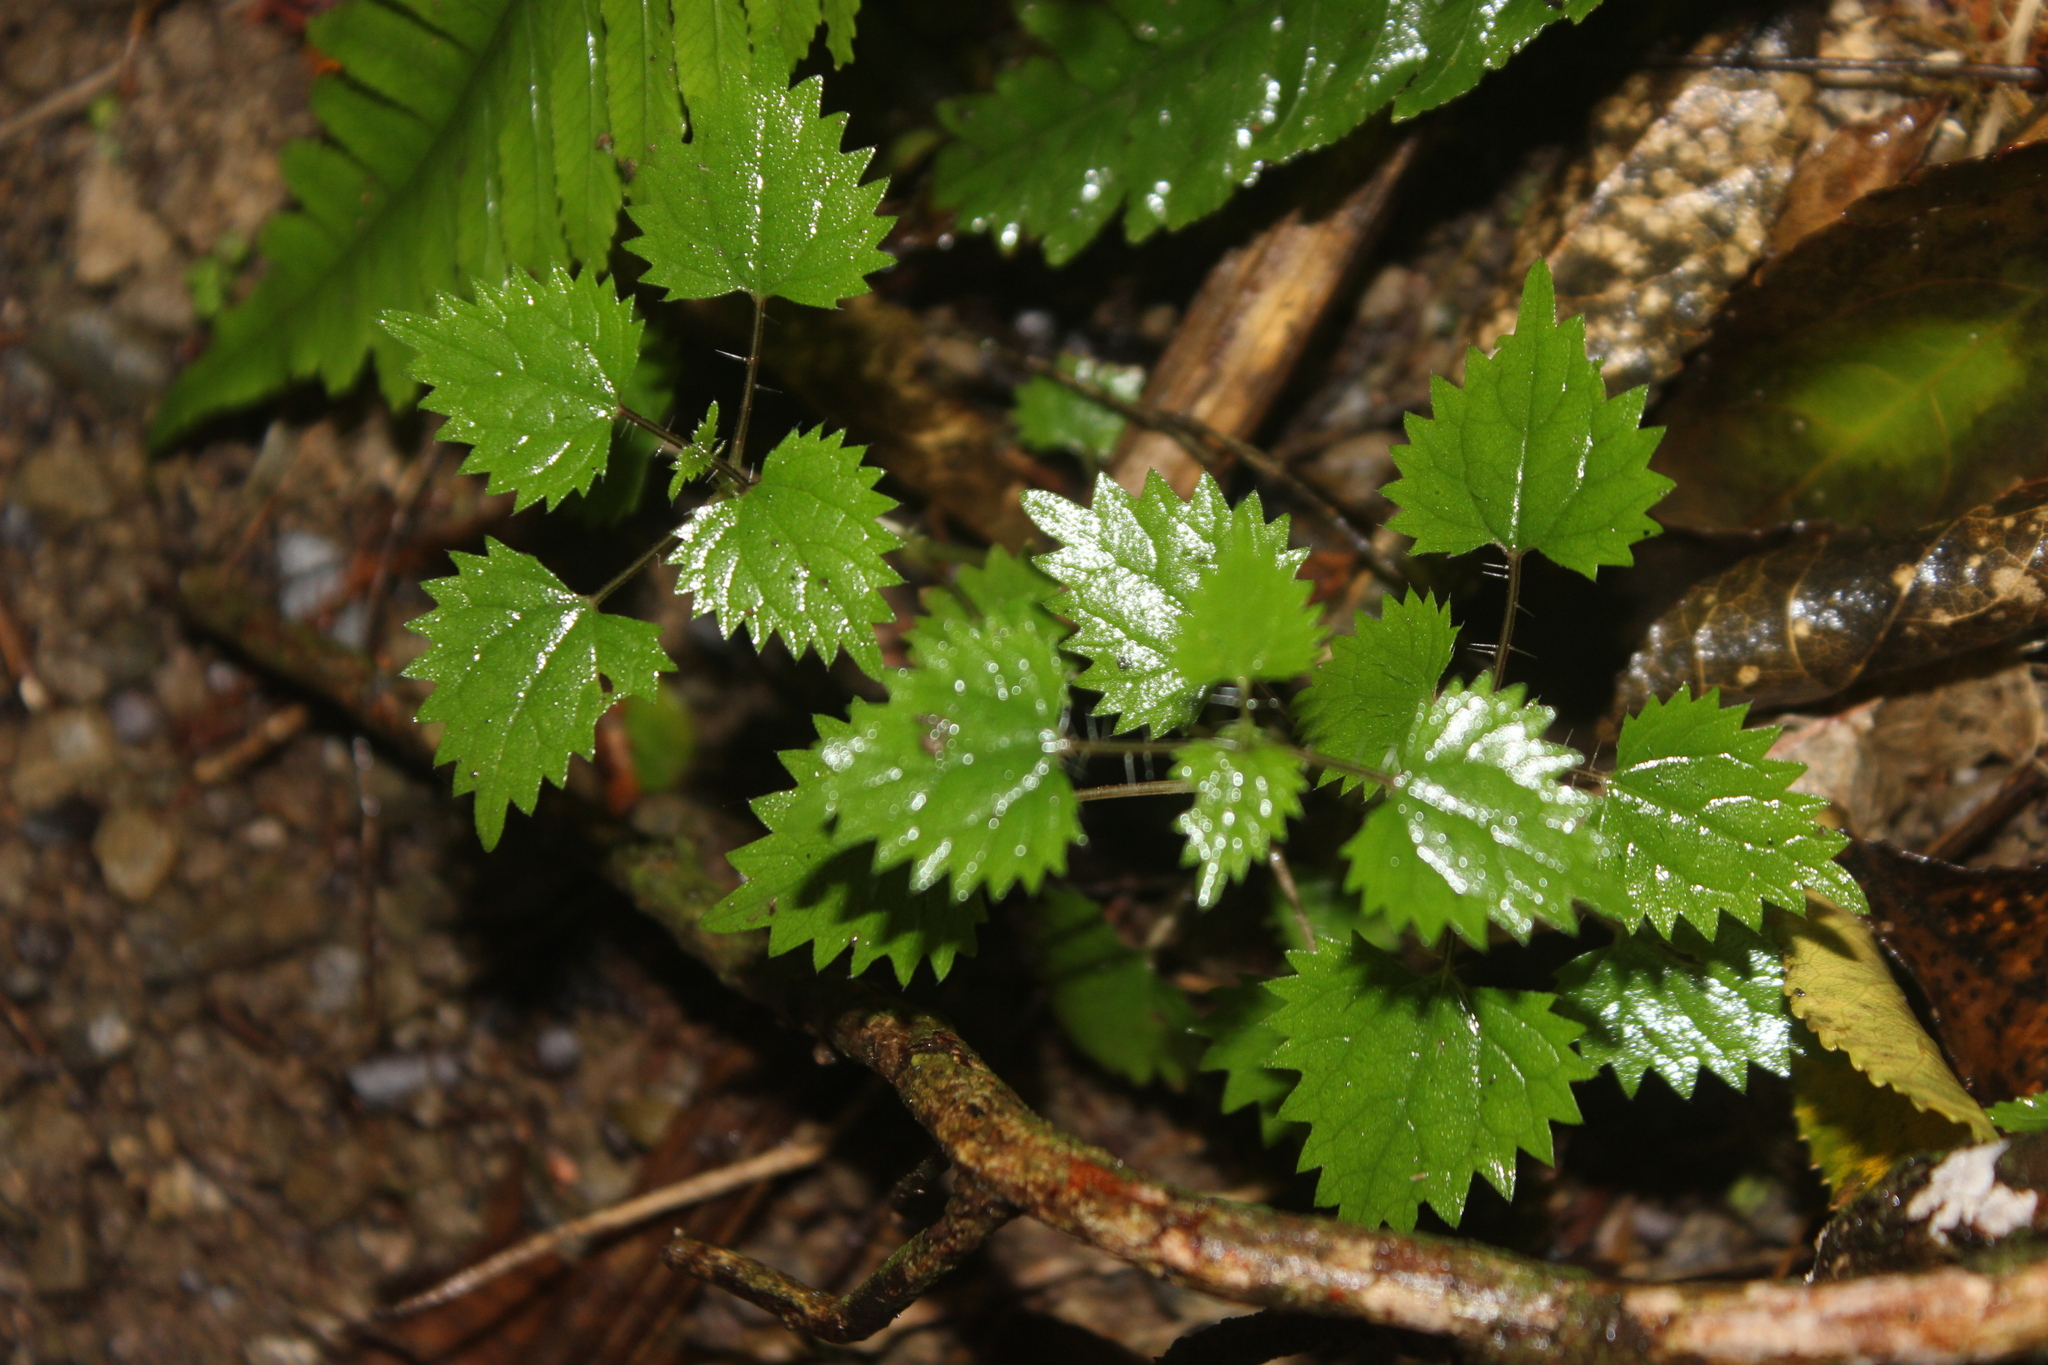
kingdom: Plantae
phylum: Tracheophyta
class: Magnoliopsida
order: Rosales
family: Urticaceae
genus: Urtica
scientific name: Urtica sykesii
